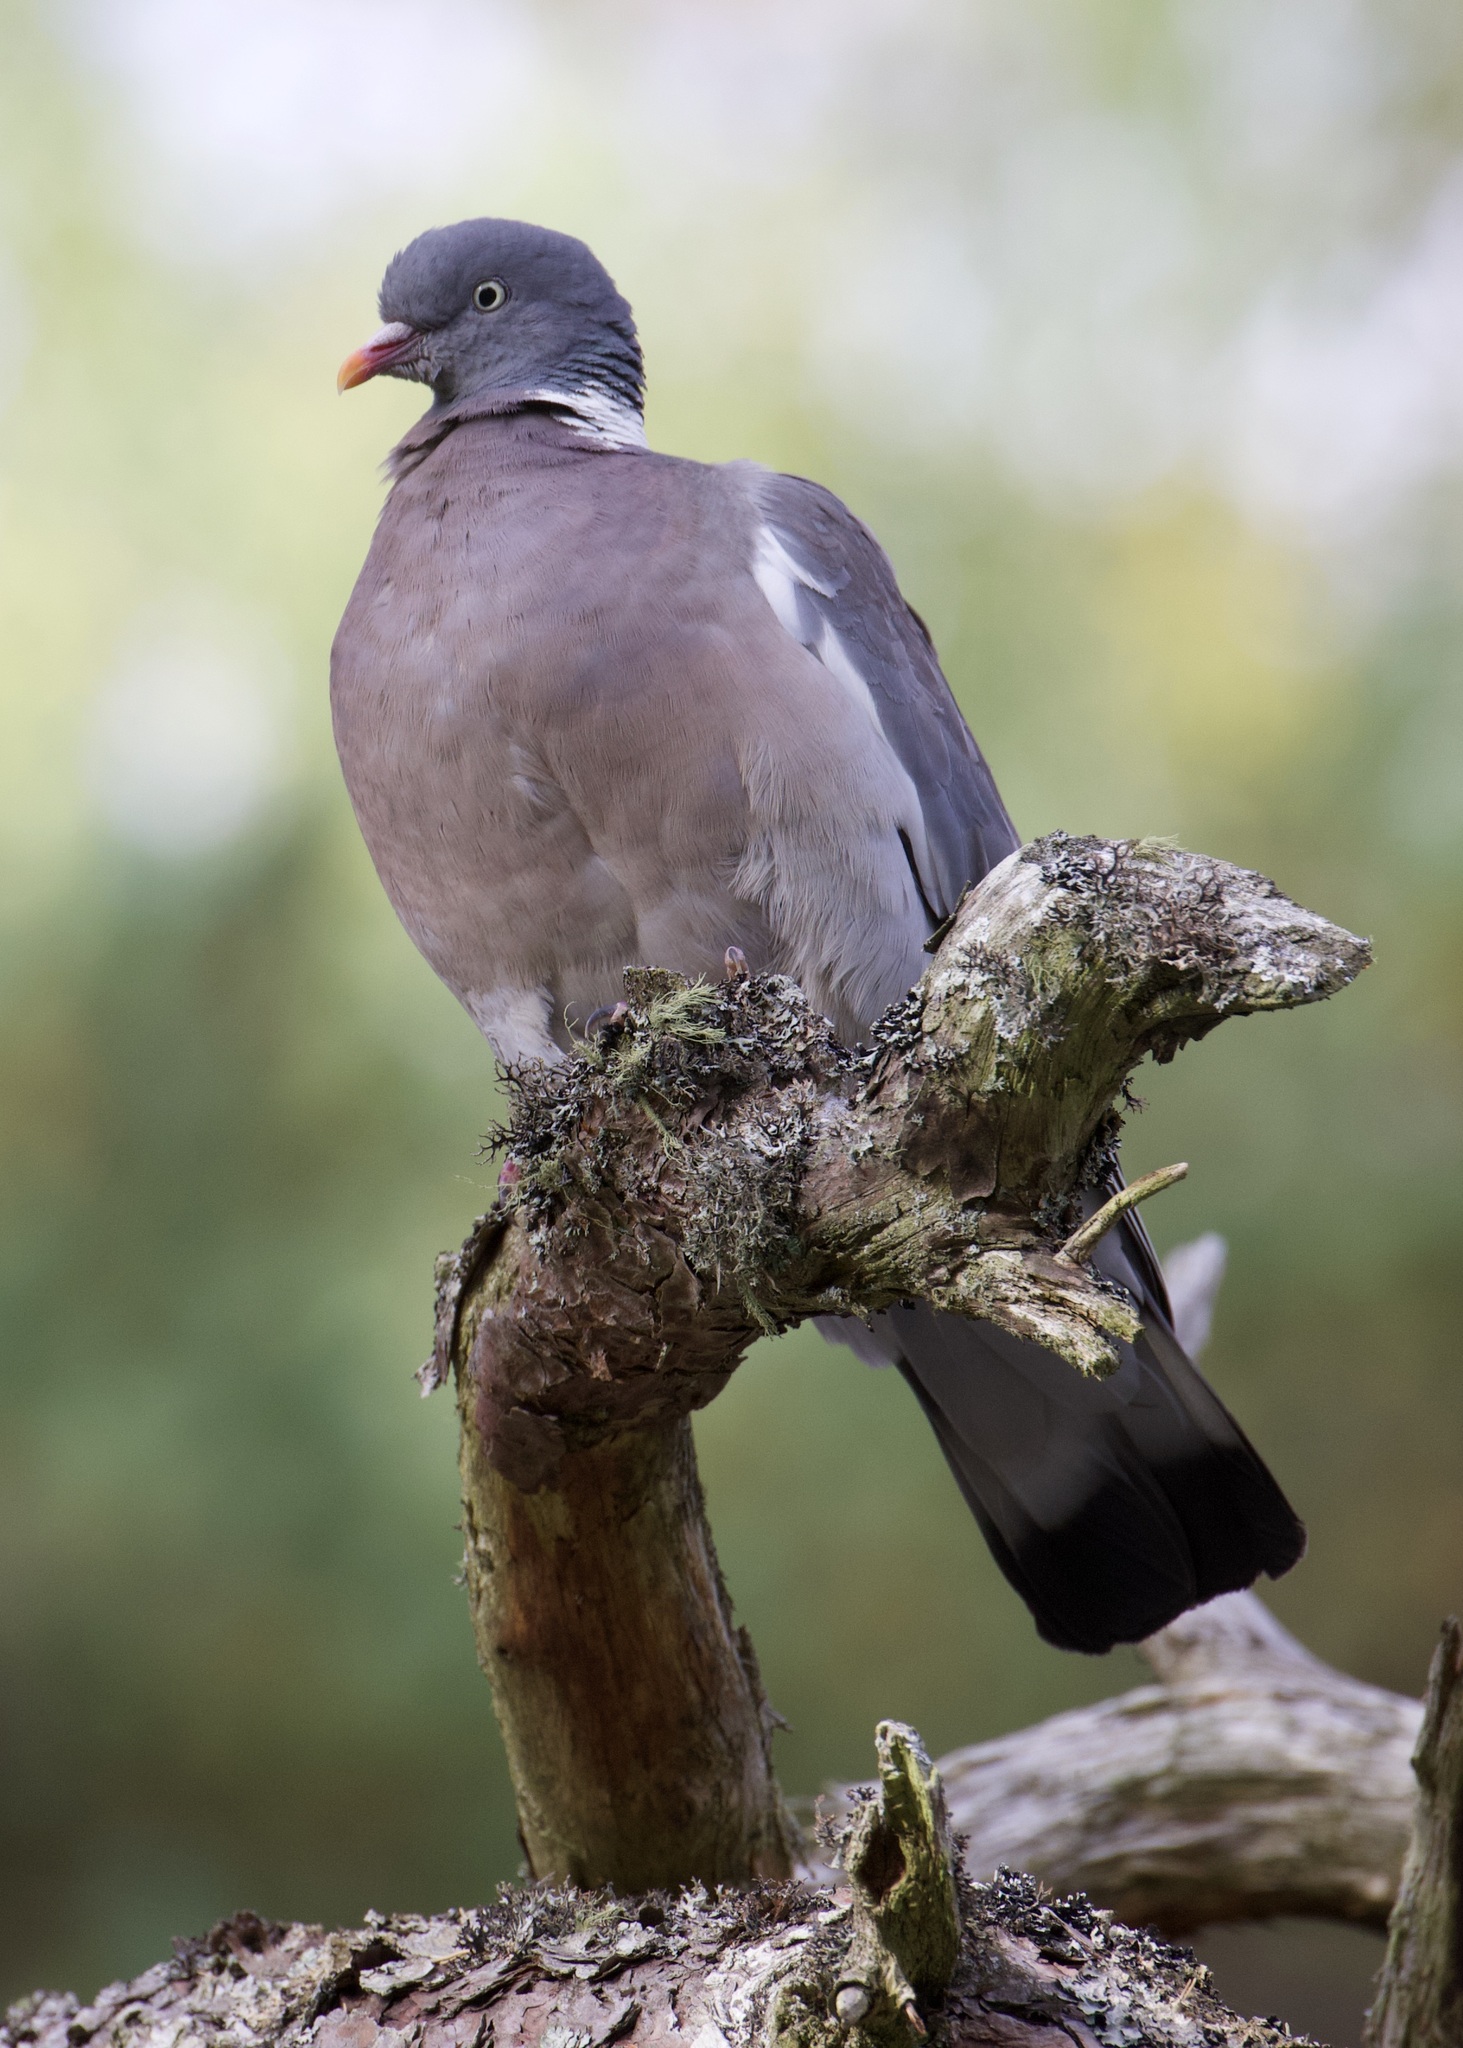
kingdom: Animalia
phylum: Chordata
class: Aves
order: Columbiformes
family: Columbidae
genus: Columba
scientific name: Columba palumbus
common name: Common wood pigeon
